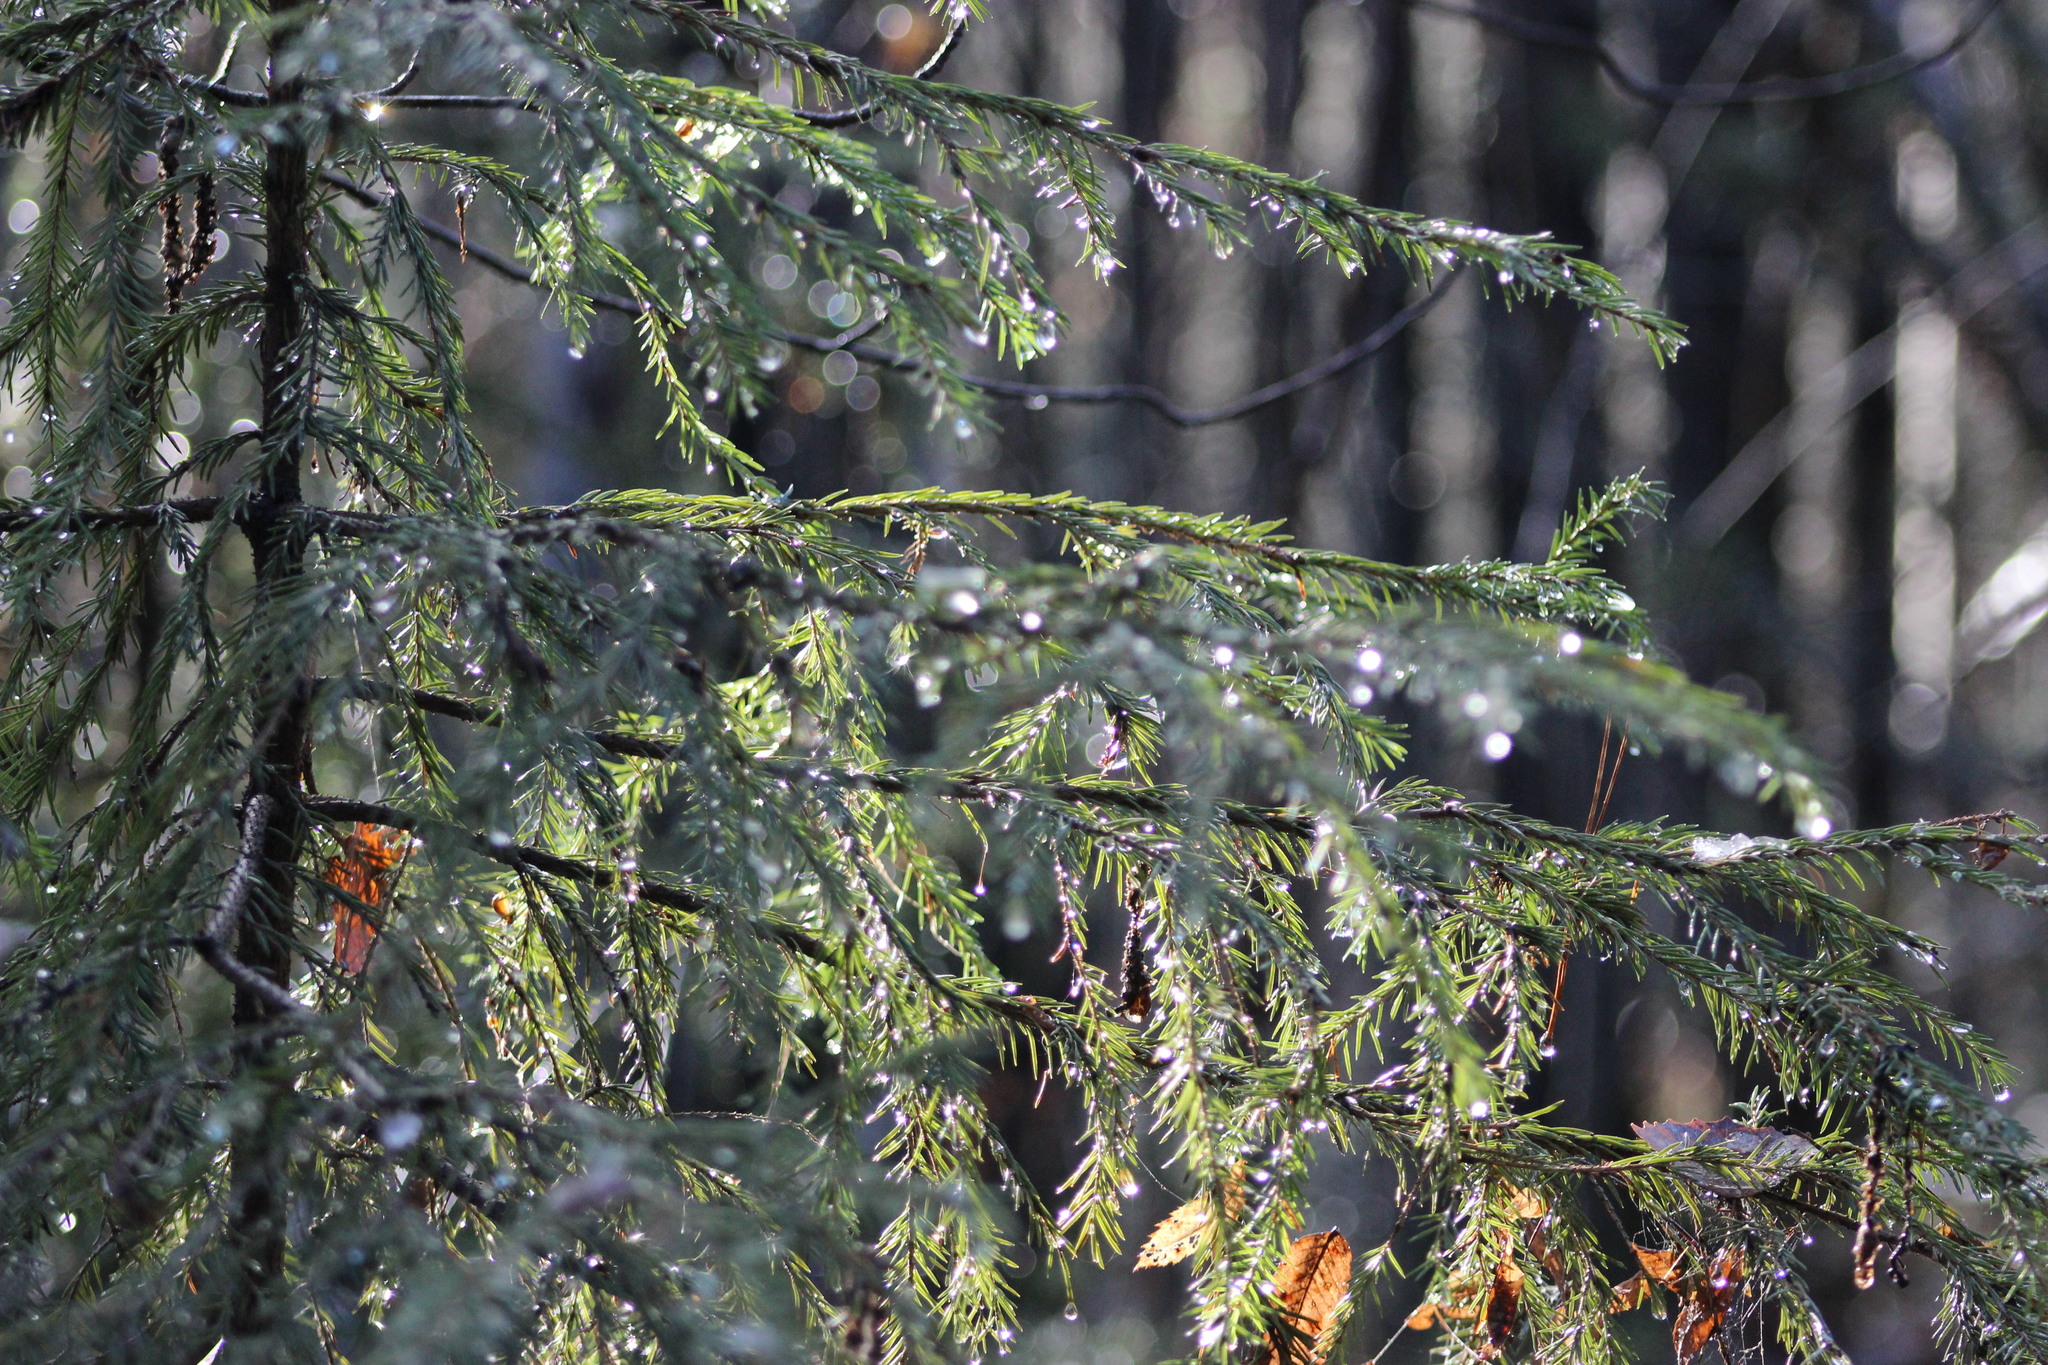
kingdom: Plantae
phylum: Tracheophyta
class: Pinopsida
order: Pinales
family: Pinaceae
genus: Picea
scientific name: Picea obovata
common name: Siberian spruce
